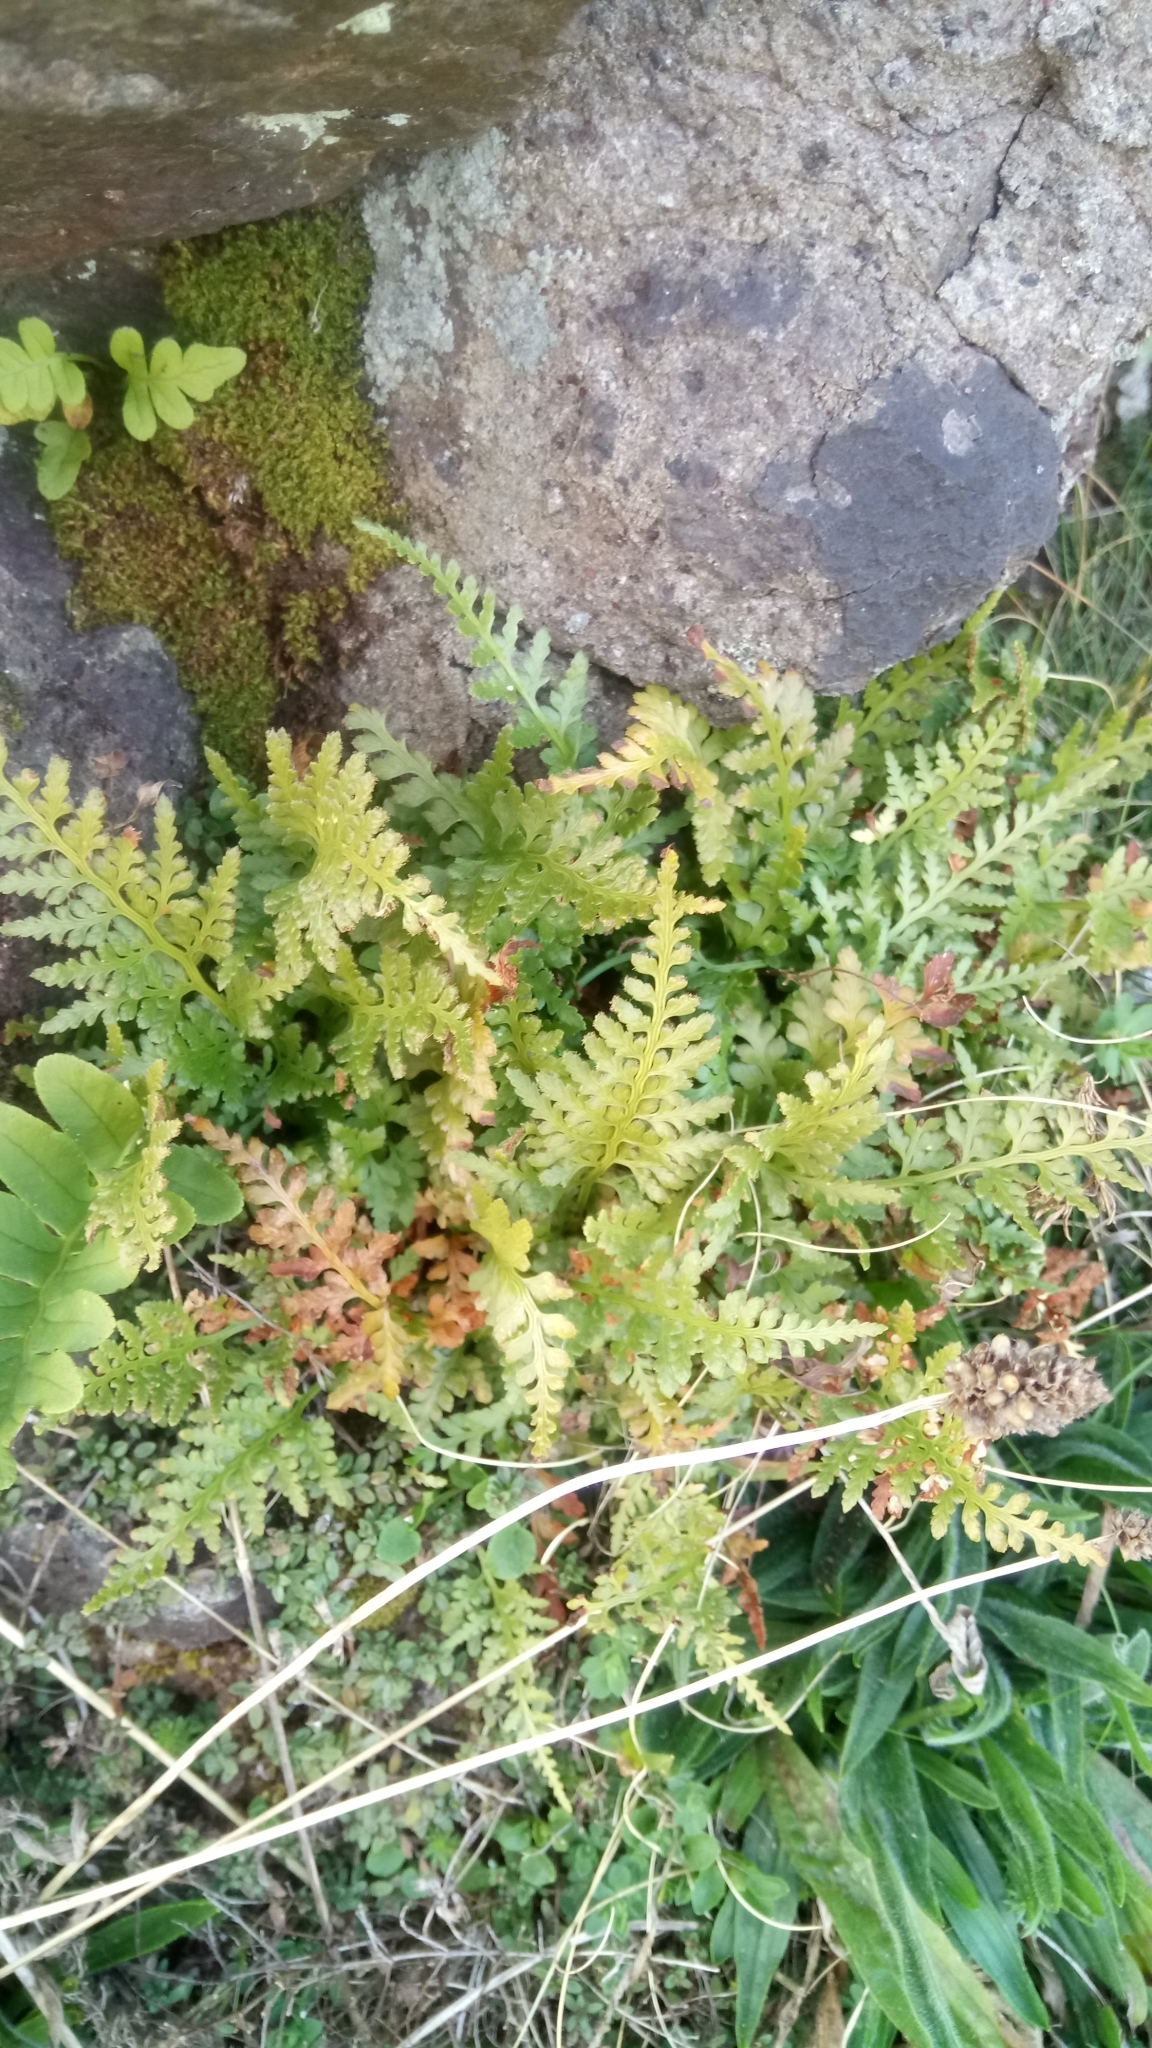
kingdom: Plantae
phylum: Tracheophyta
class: Polypodiopsida
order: Polypodiales
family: Aspleniaceae
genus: Asplenium
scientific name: Asplenium adiantum-nigrum
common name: Black spleenwort
